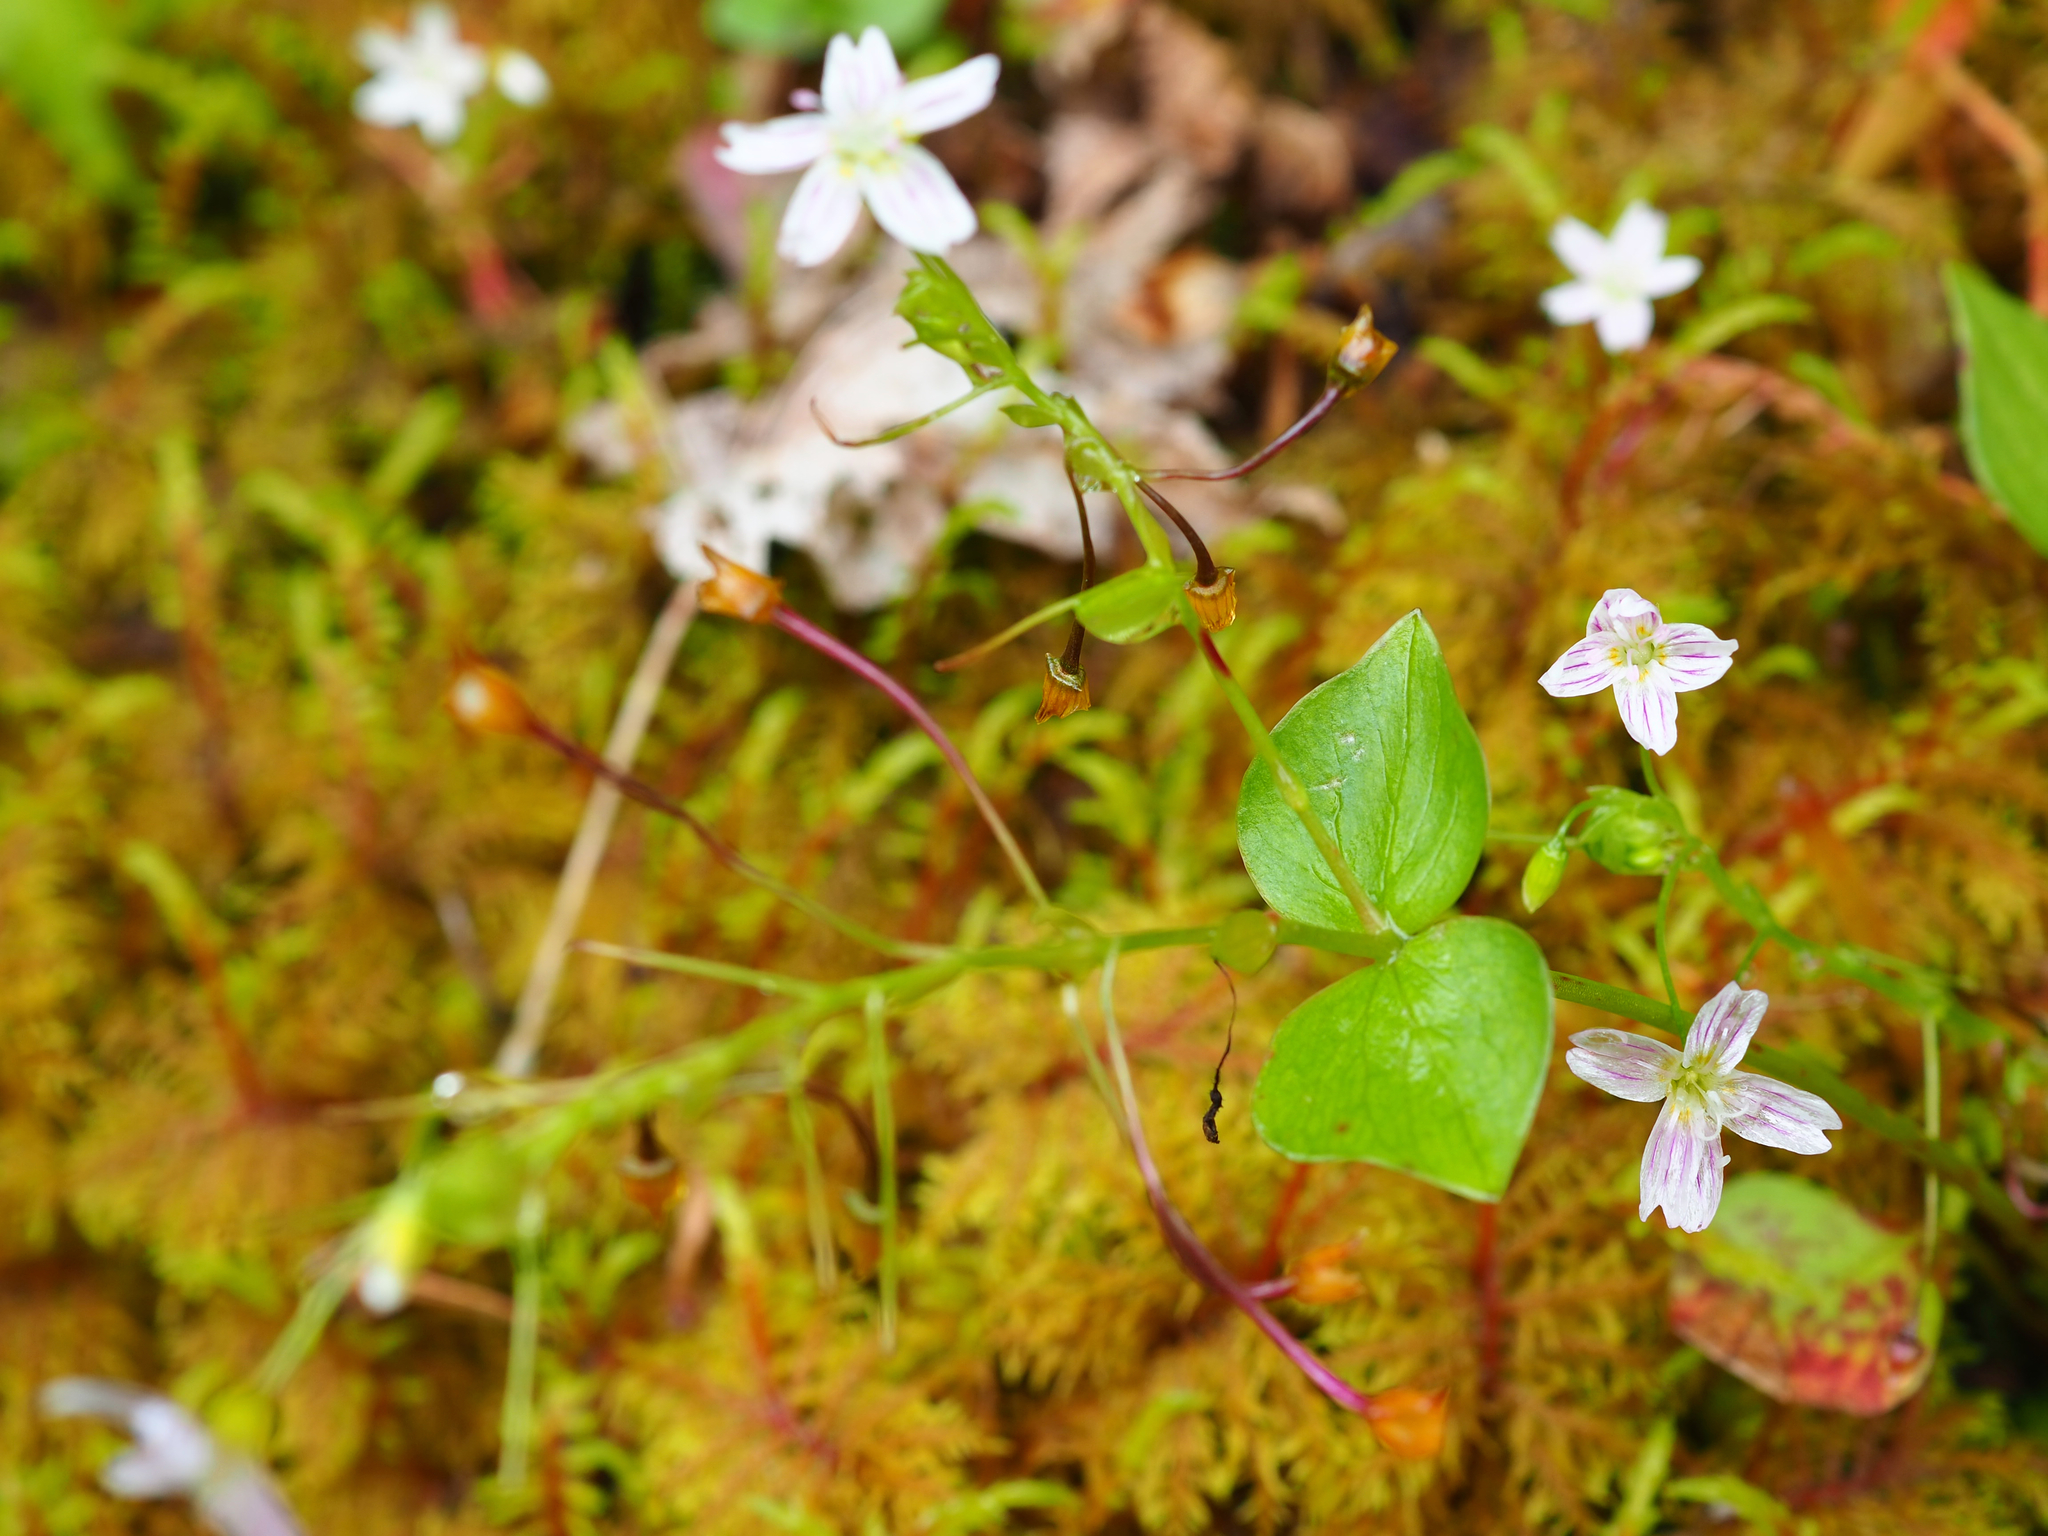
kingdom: Plantae
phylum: Tracheophyta
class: Magnoliopsida
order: Caryophyllales
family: Montiaceae
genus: Claytonia
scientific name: Claytonia sibirica
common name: Pink purslane
